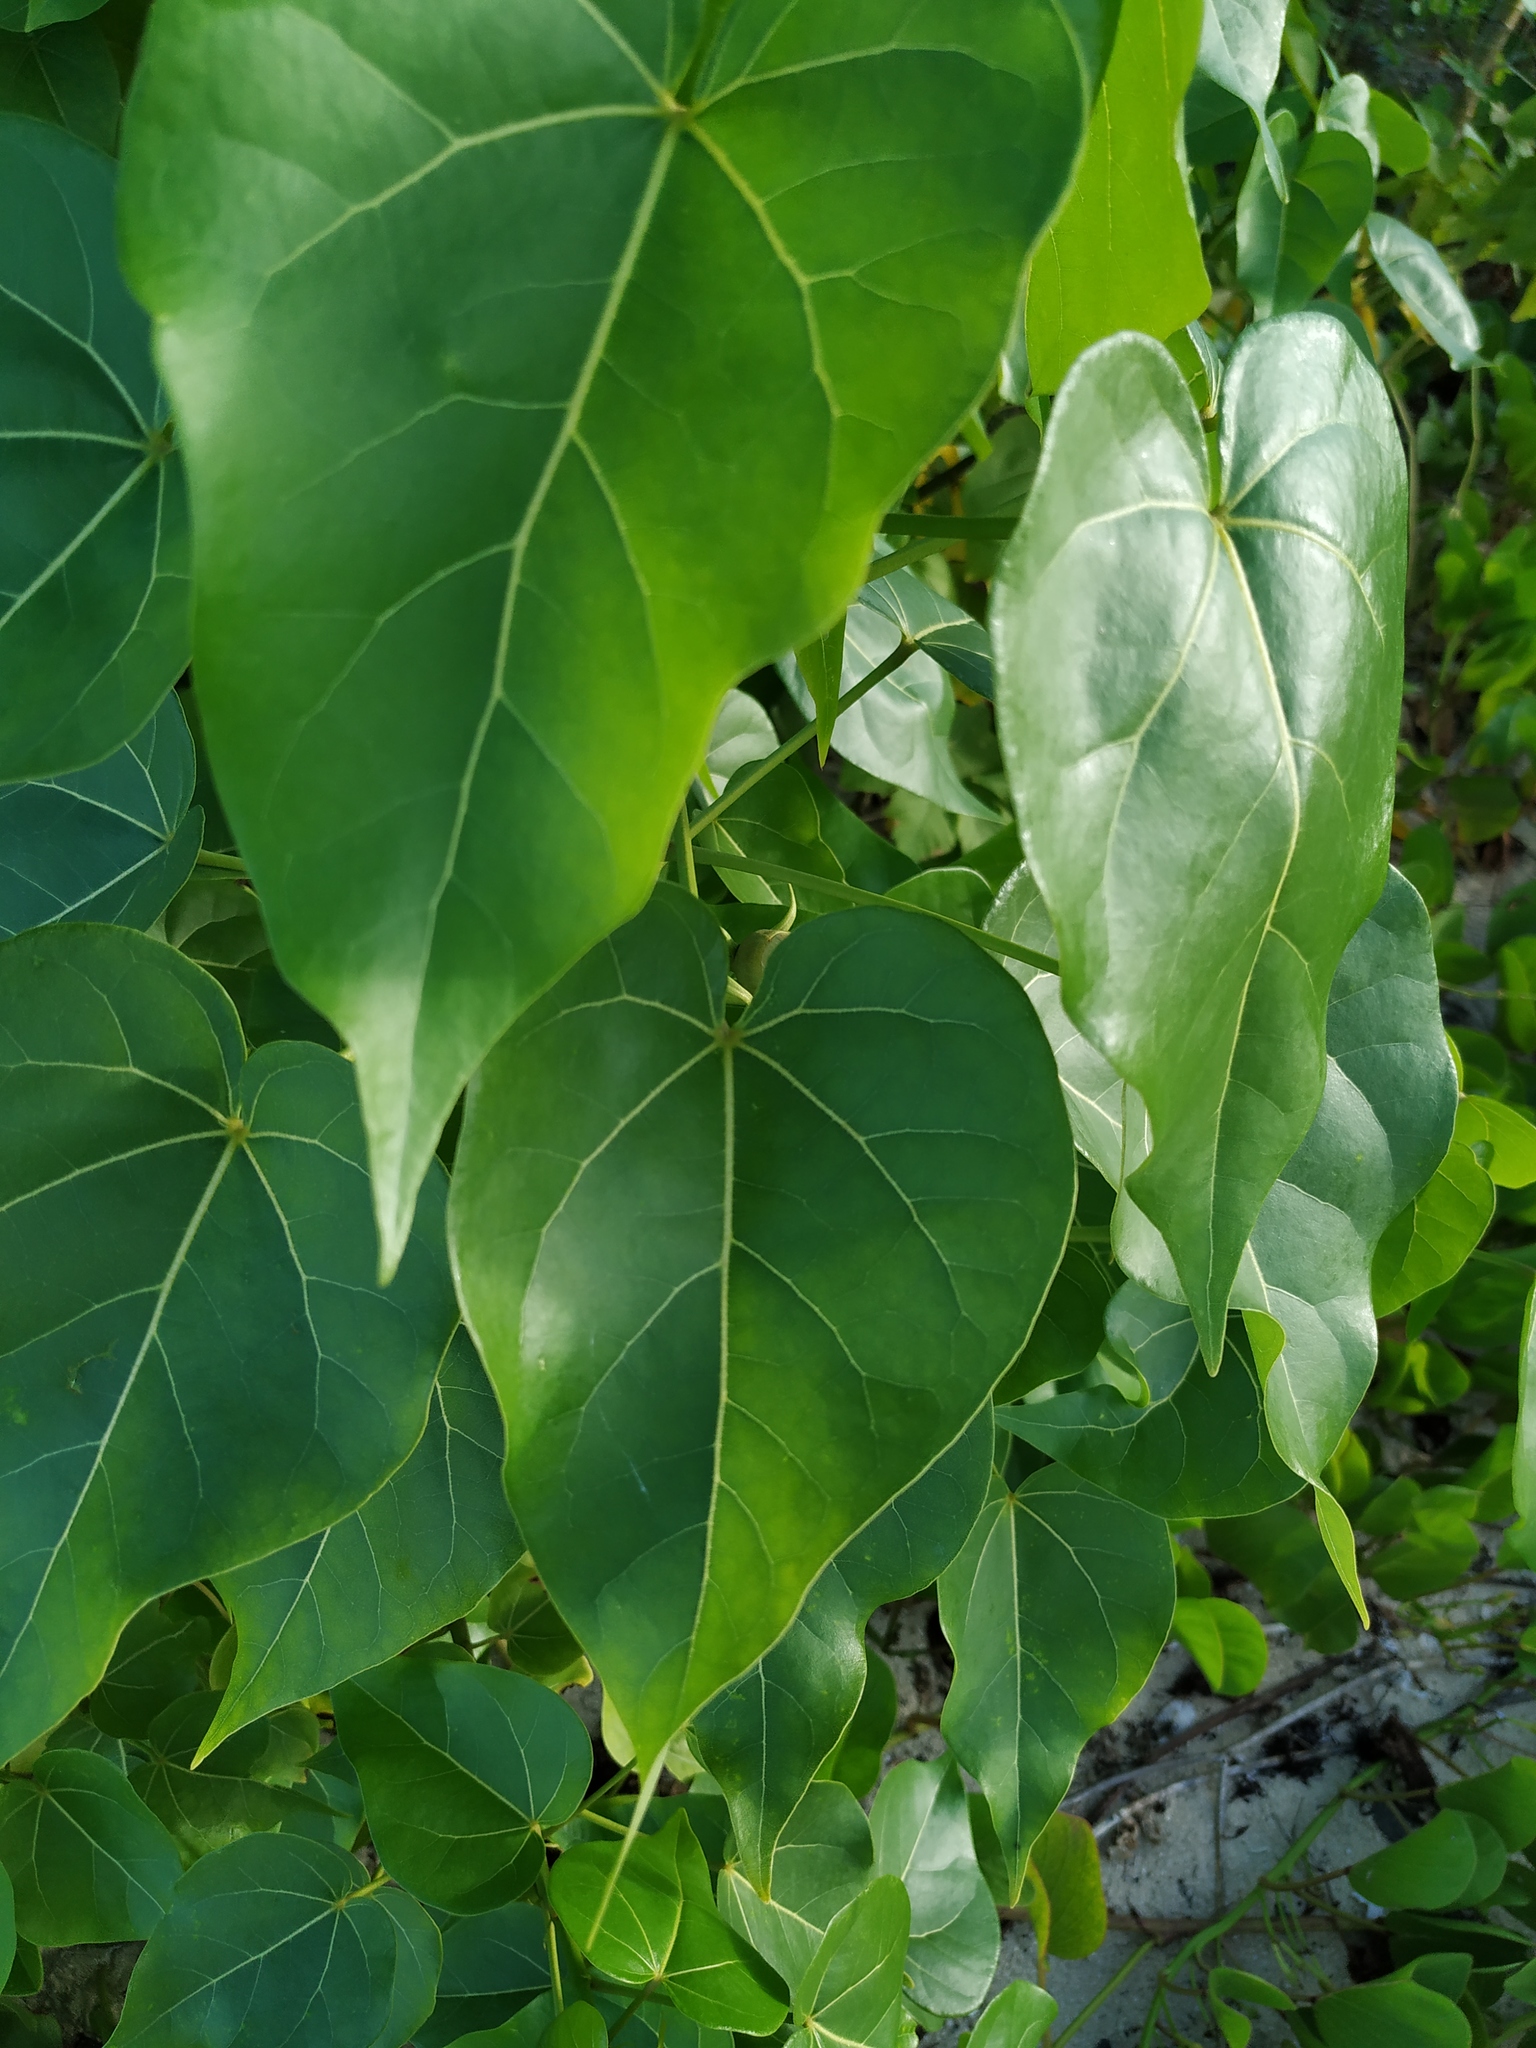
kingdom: Plantae
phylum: Tracheophyta
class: Magnoliopsida
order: Malvales
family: Malvaceae
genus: Thespesia
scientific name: Thespesia populnea
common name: Seaside mahoe
